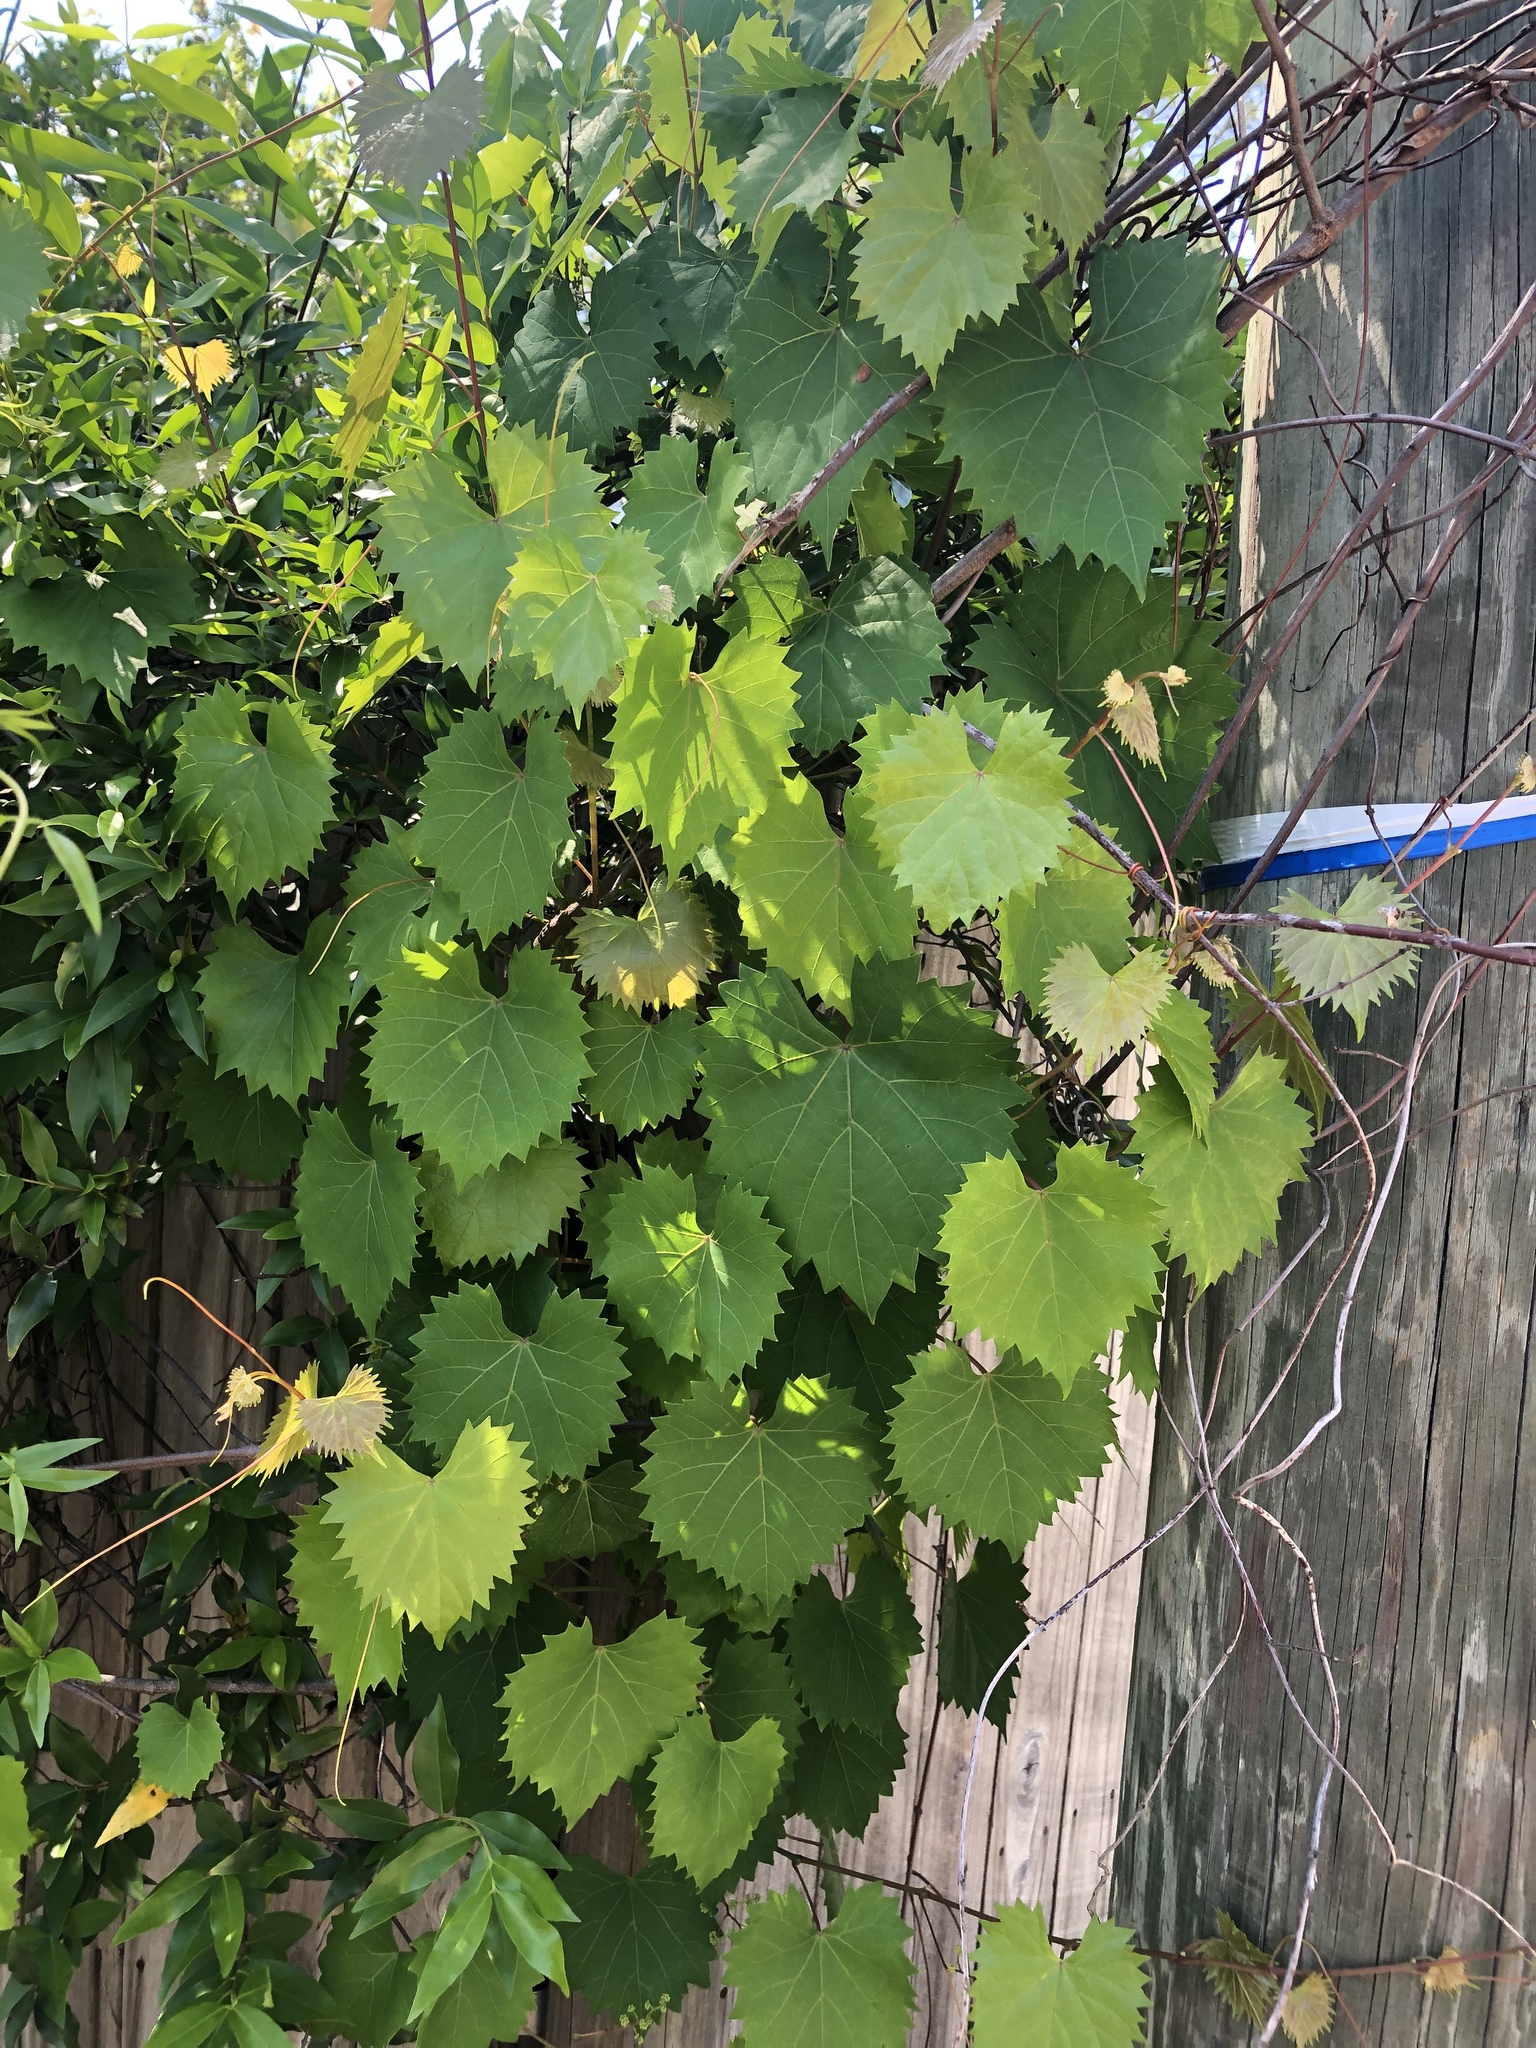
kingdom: Plantae
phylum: Tracheophyta
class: Magnoliopsida
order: Vitales
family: Vitaceae
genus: Vitis
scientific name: Vitis rotundifolia
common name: Muscadine grape
